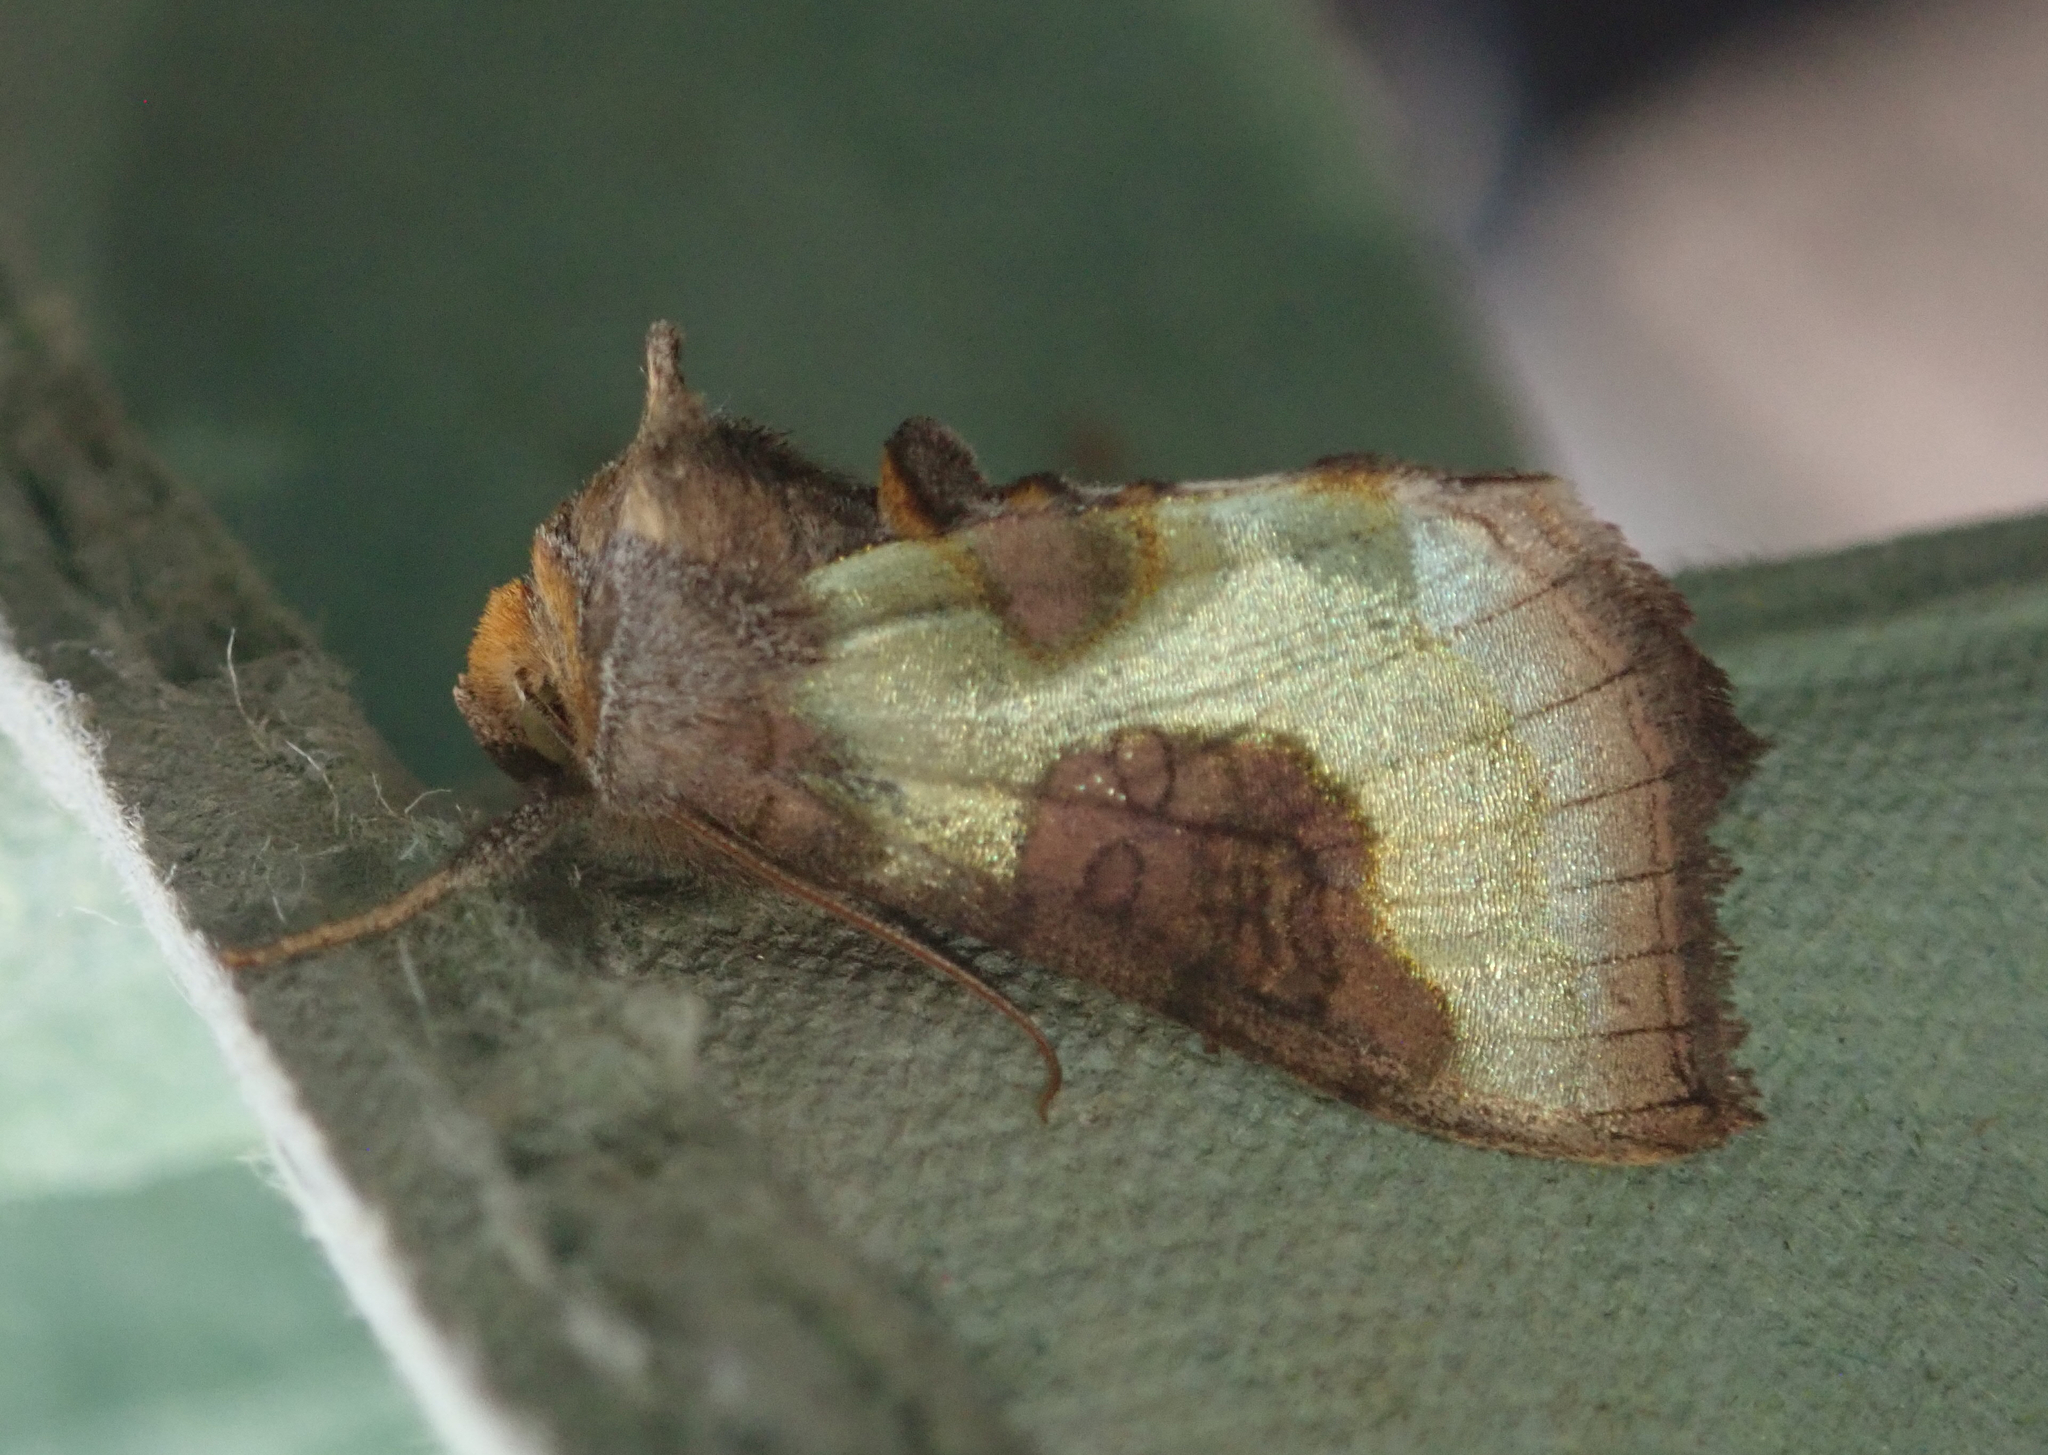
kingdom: Animalia
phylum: Arthropoda
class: Insecta
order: Lepidoptera
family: Noctuidae
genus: Diachrysia
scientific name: Diachrysia chrysitis
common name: Burnished brass
